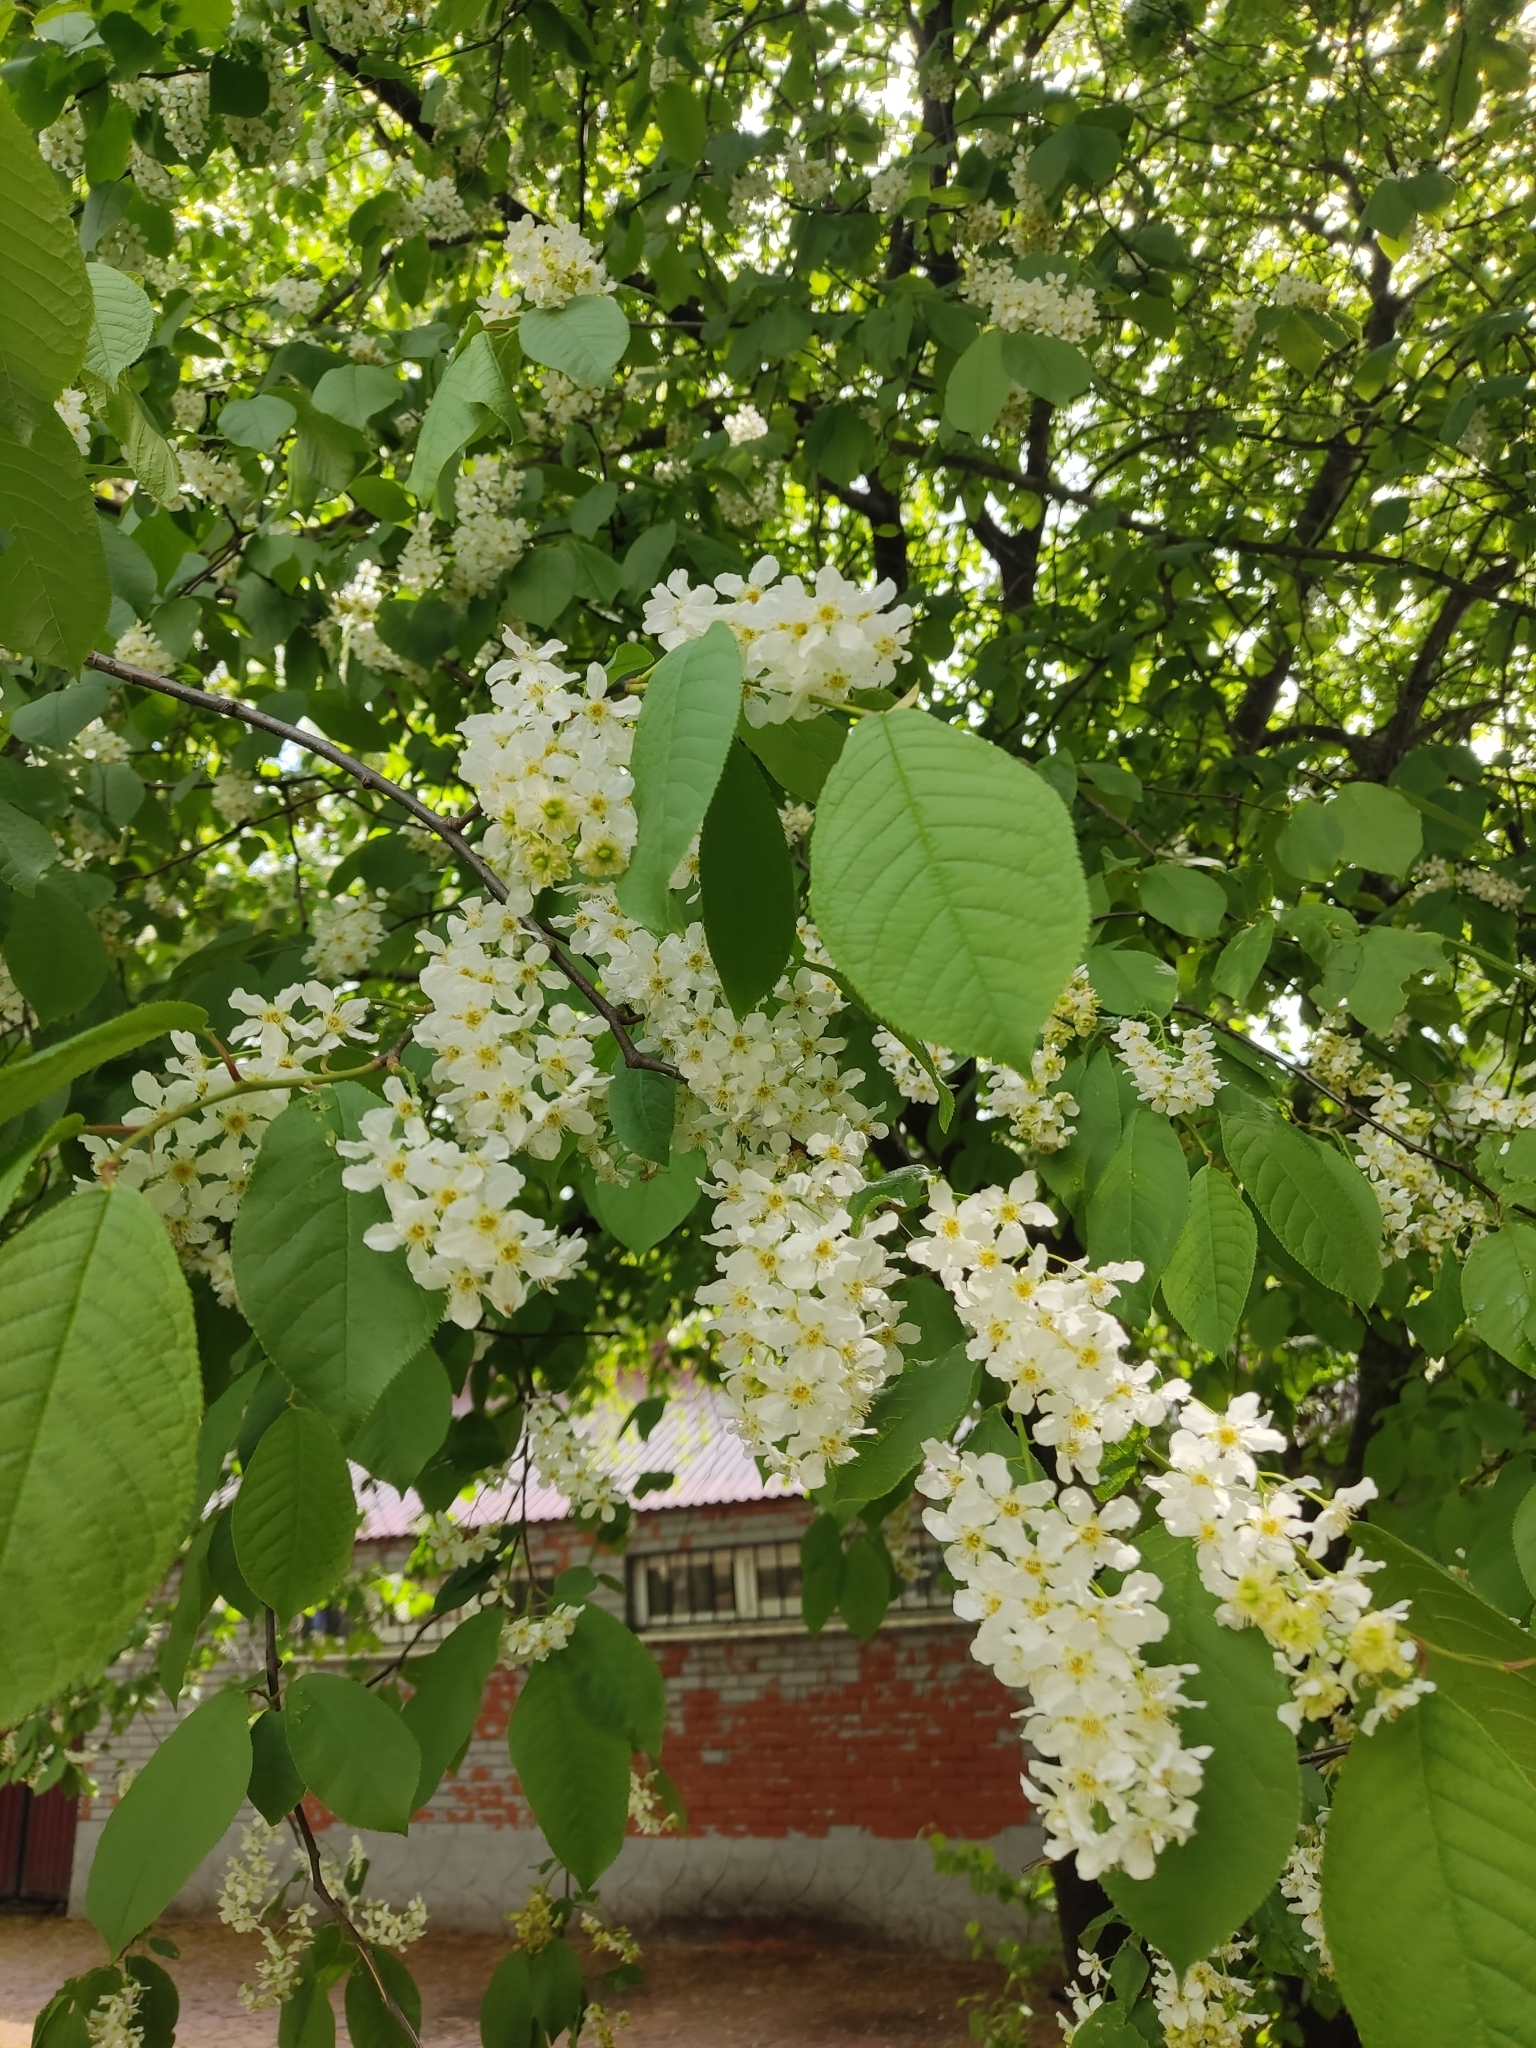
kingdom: Plantae
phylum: Tracheophyta
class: Magnoliopsida
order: Rosales
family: Rosaceae
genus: Prunus
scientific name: Prunus padus
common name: Bird cherry
